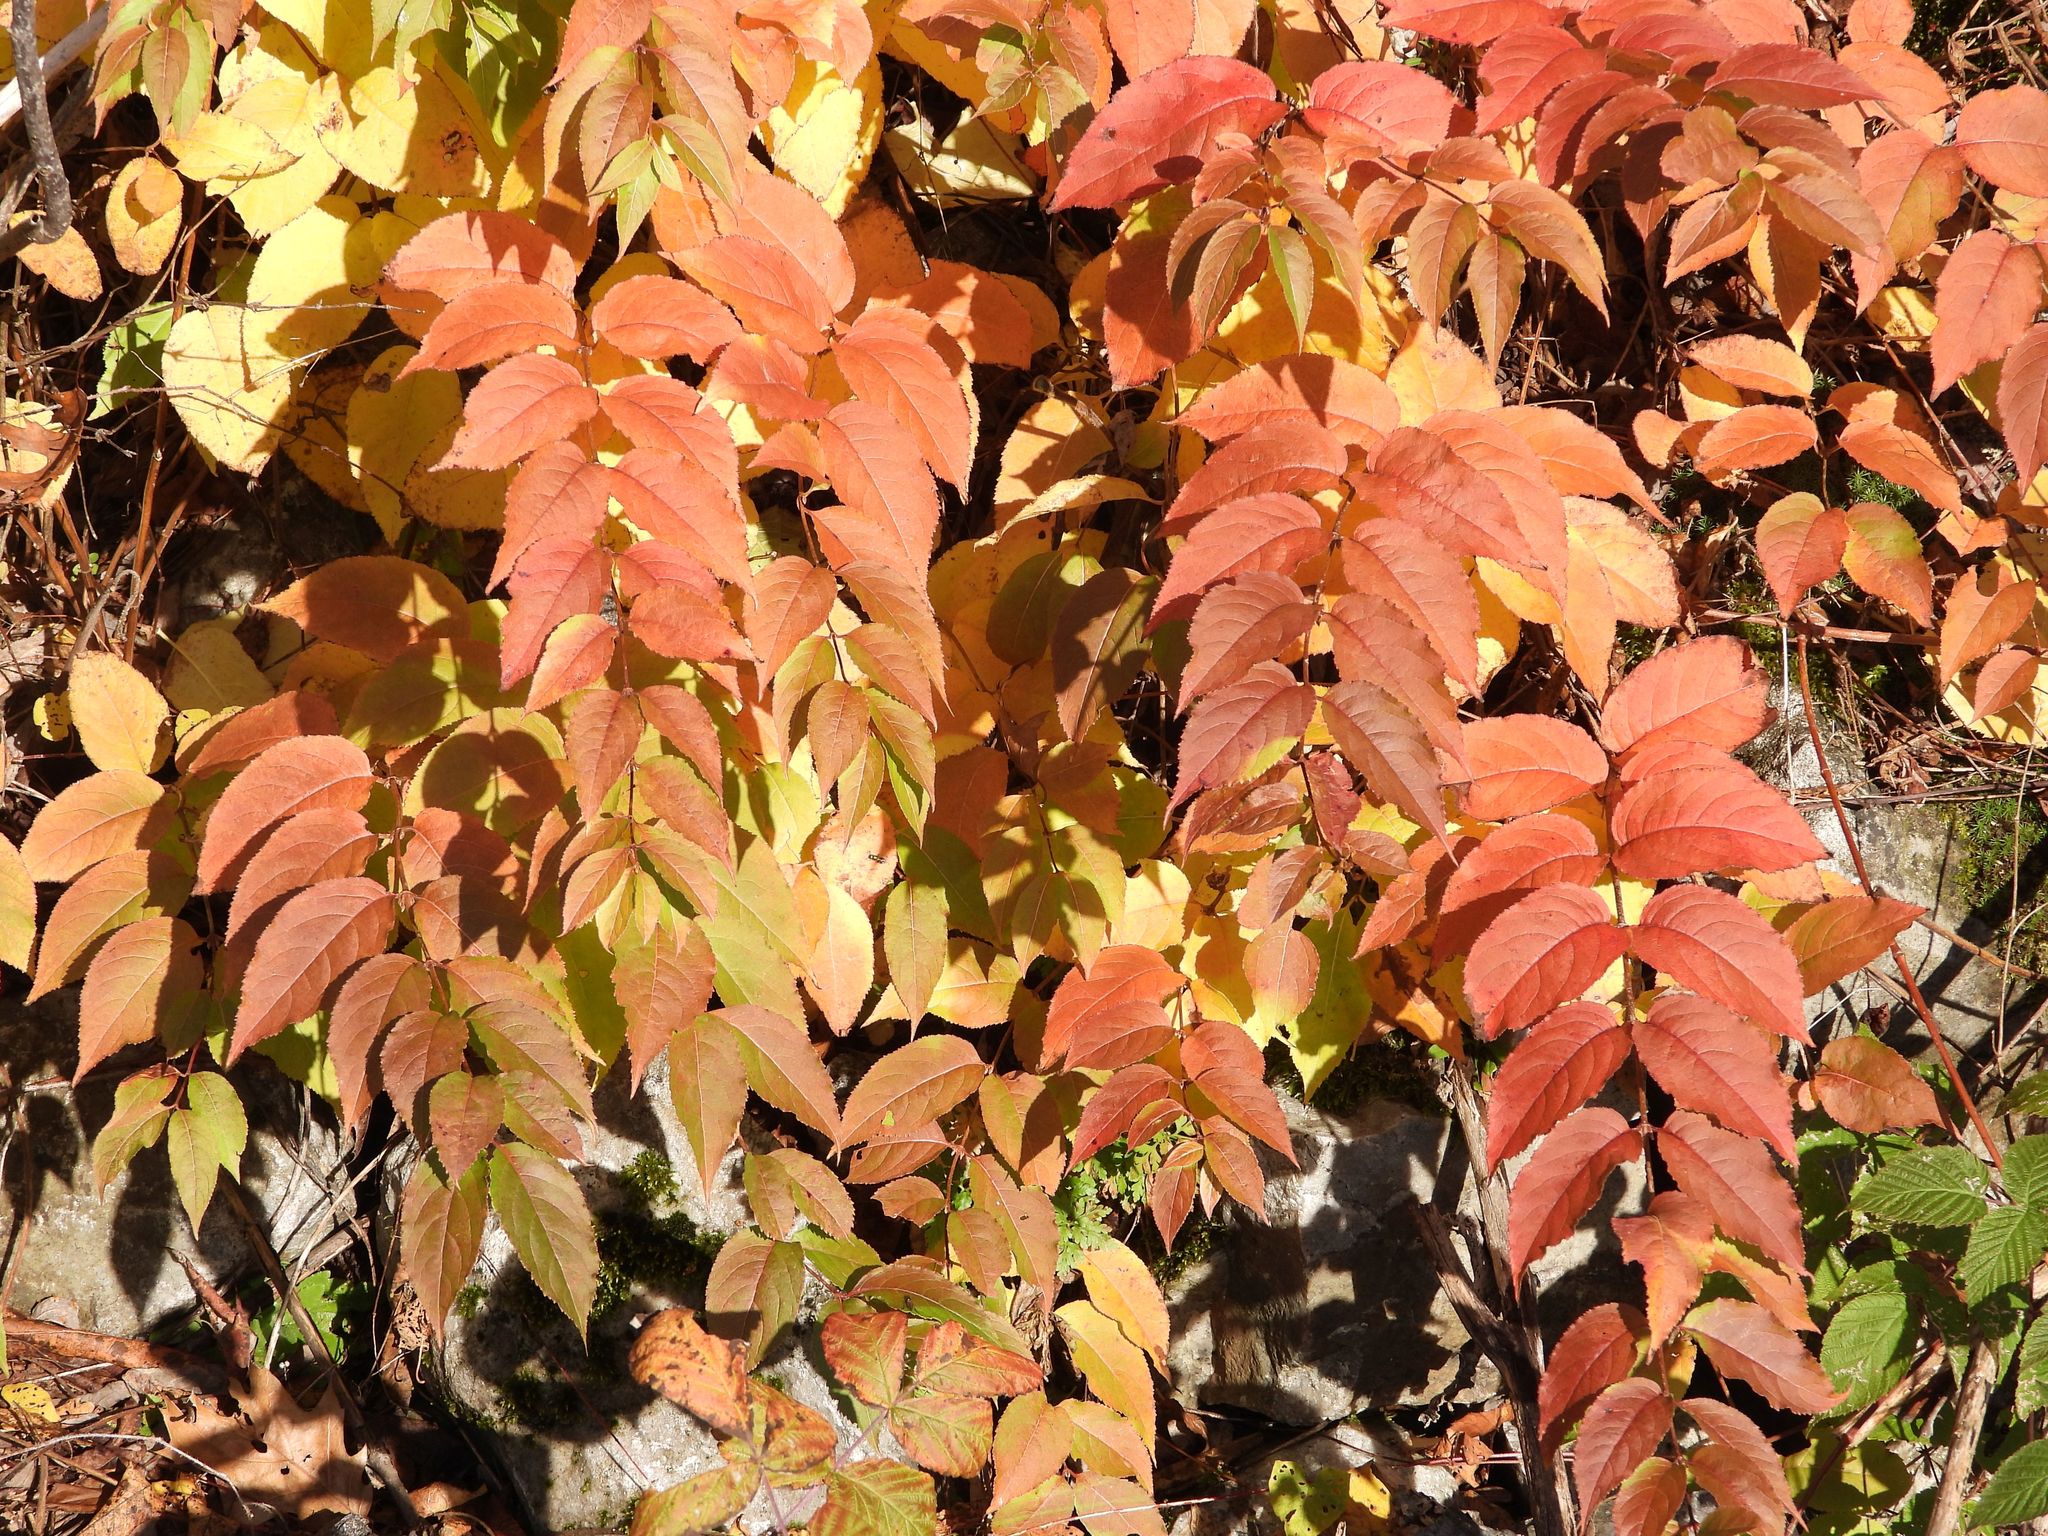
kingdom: Plantae
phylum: Tracheophyta
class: Magnoliopsida
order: Dipsacales
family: Caprifoliaceae
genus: Diervilla
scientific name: Diervilla lonicera
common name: Bush-honeysuckle
